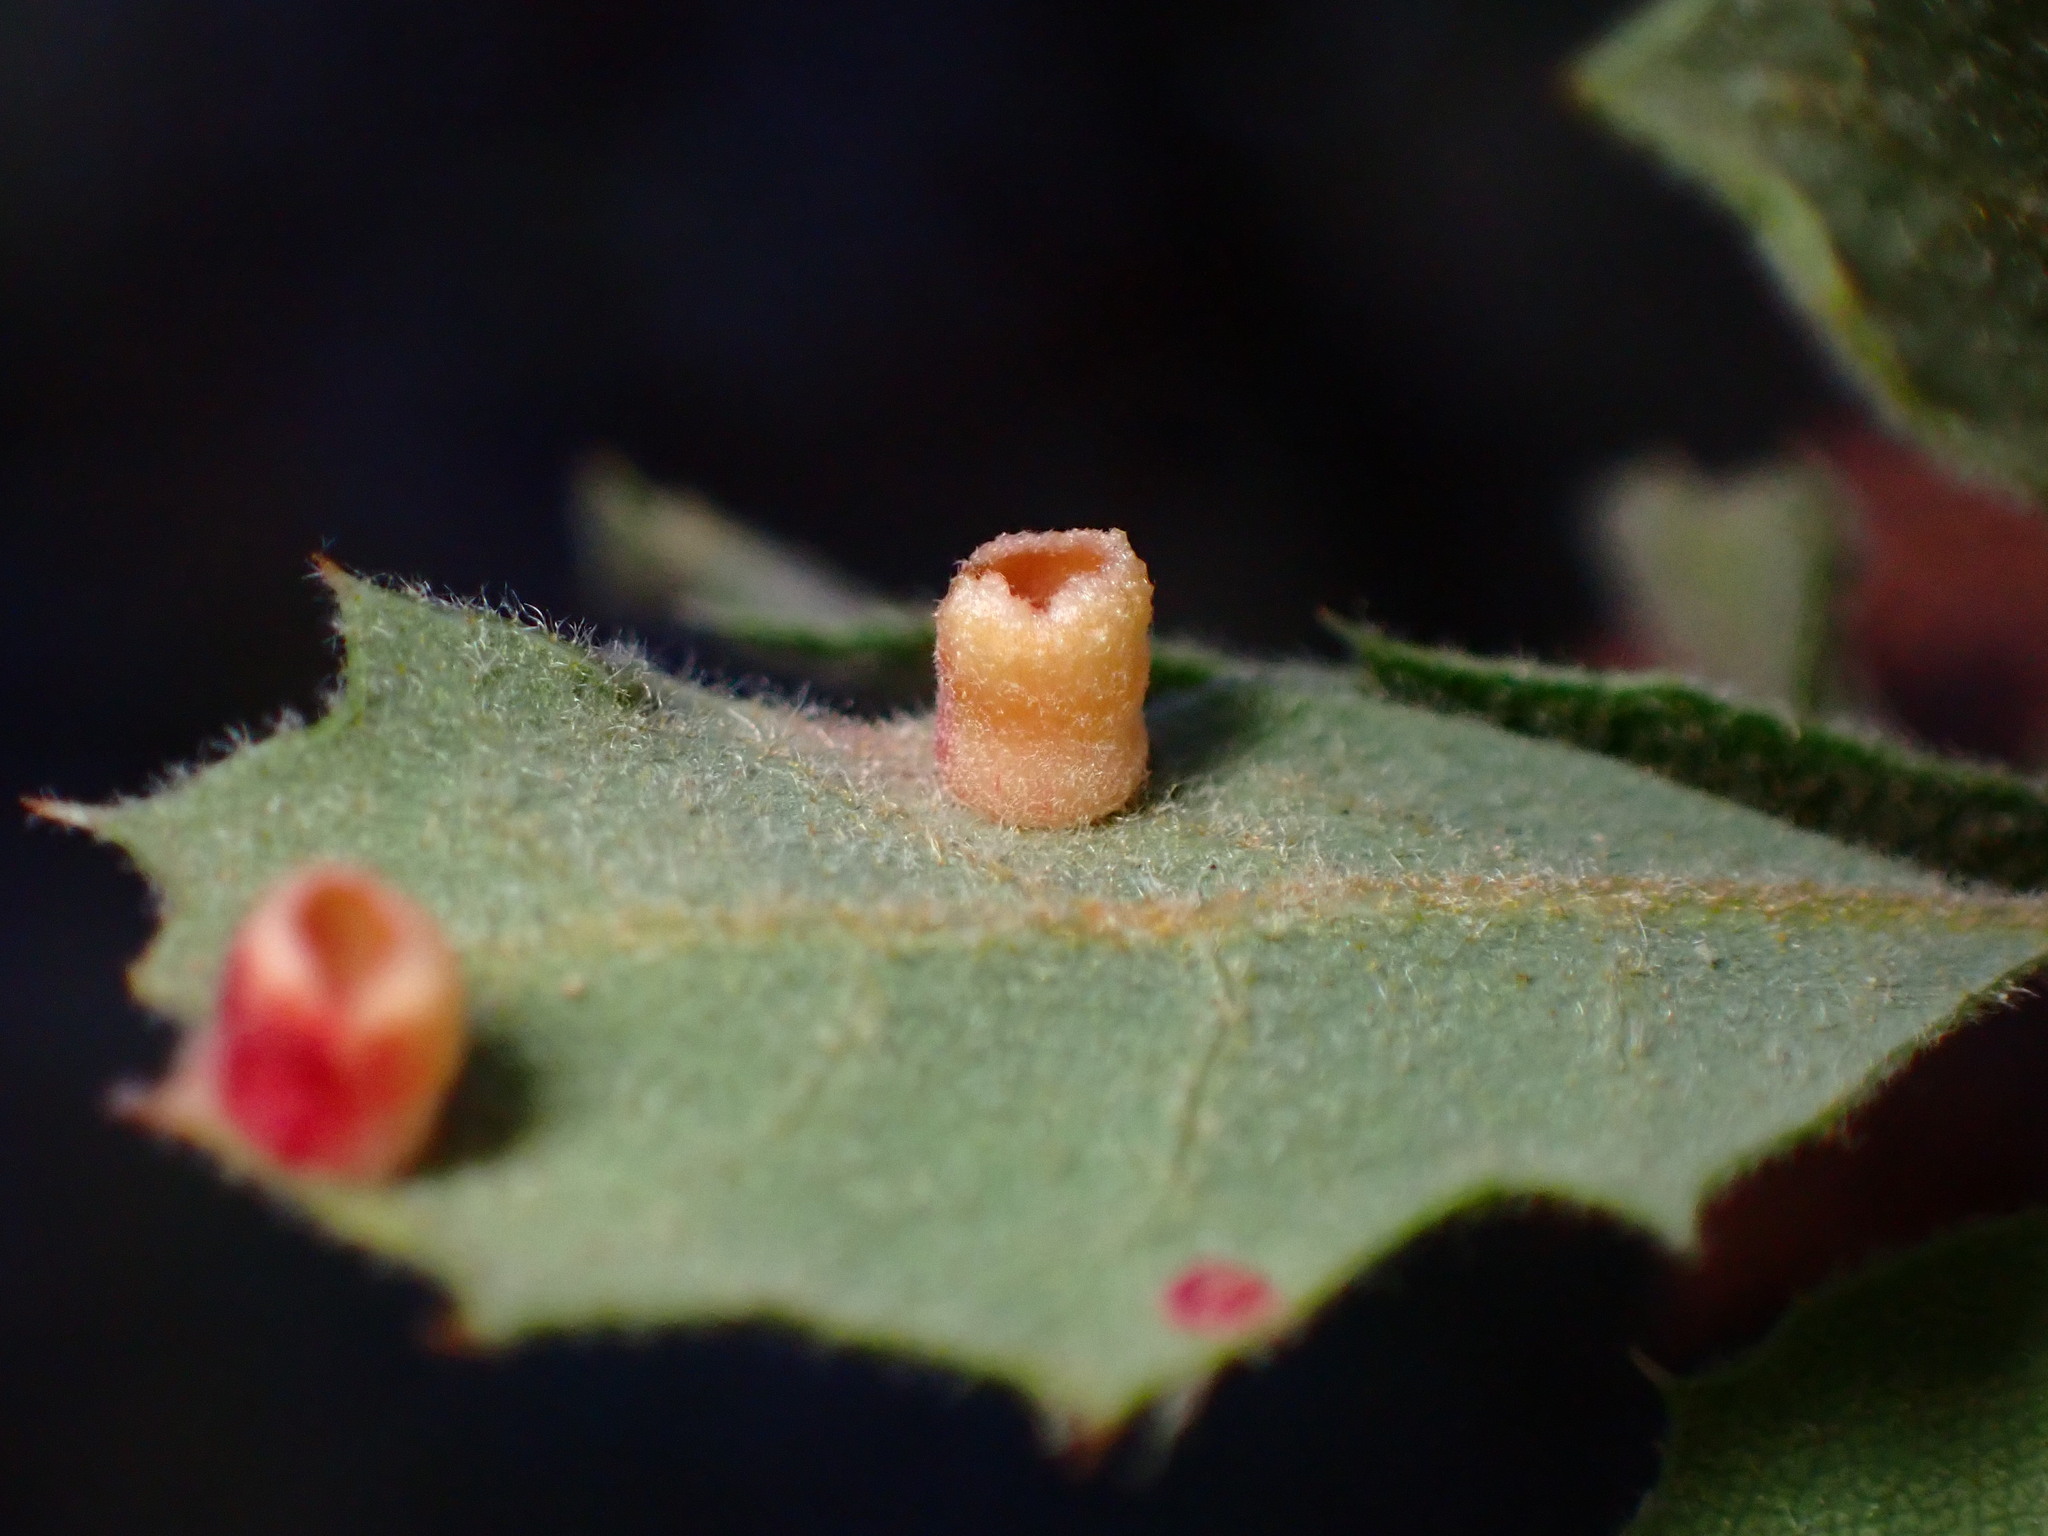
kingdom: Animalia
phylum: Arthropoda
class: Insecta
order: Hymenoptera
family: Cynipidae
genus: Phylloteras
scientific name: Phylloteras
